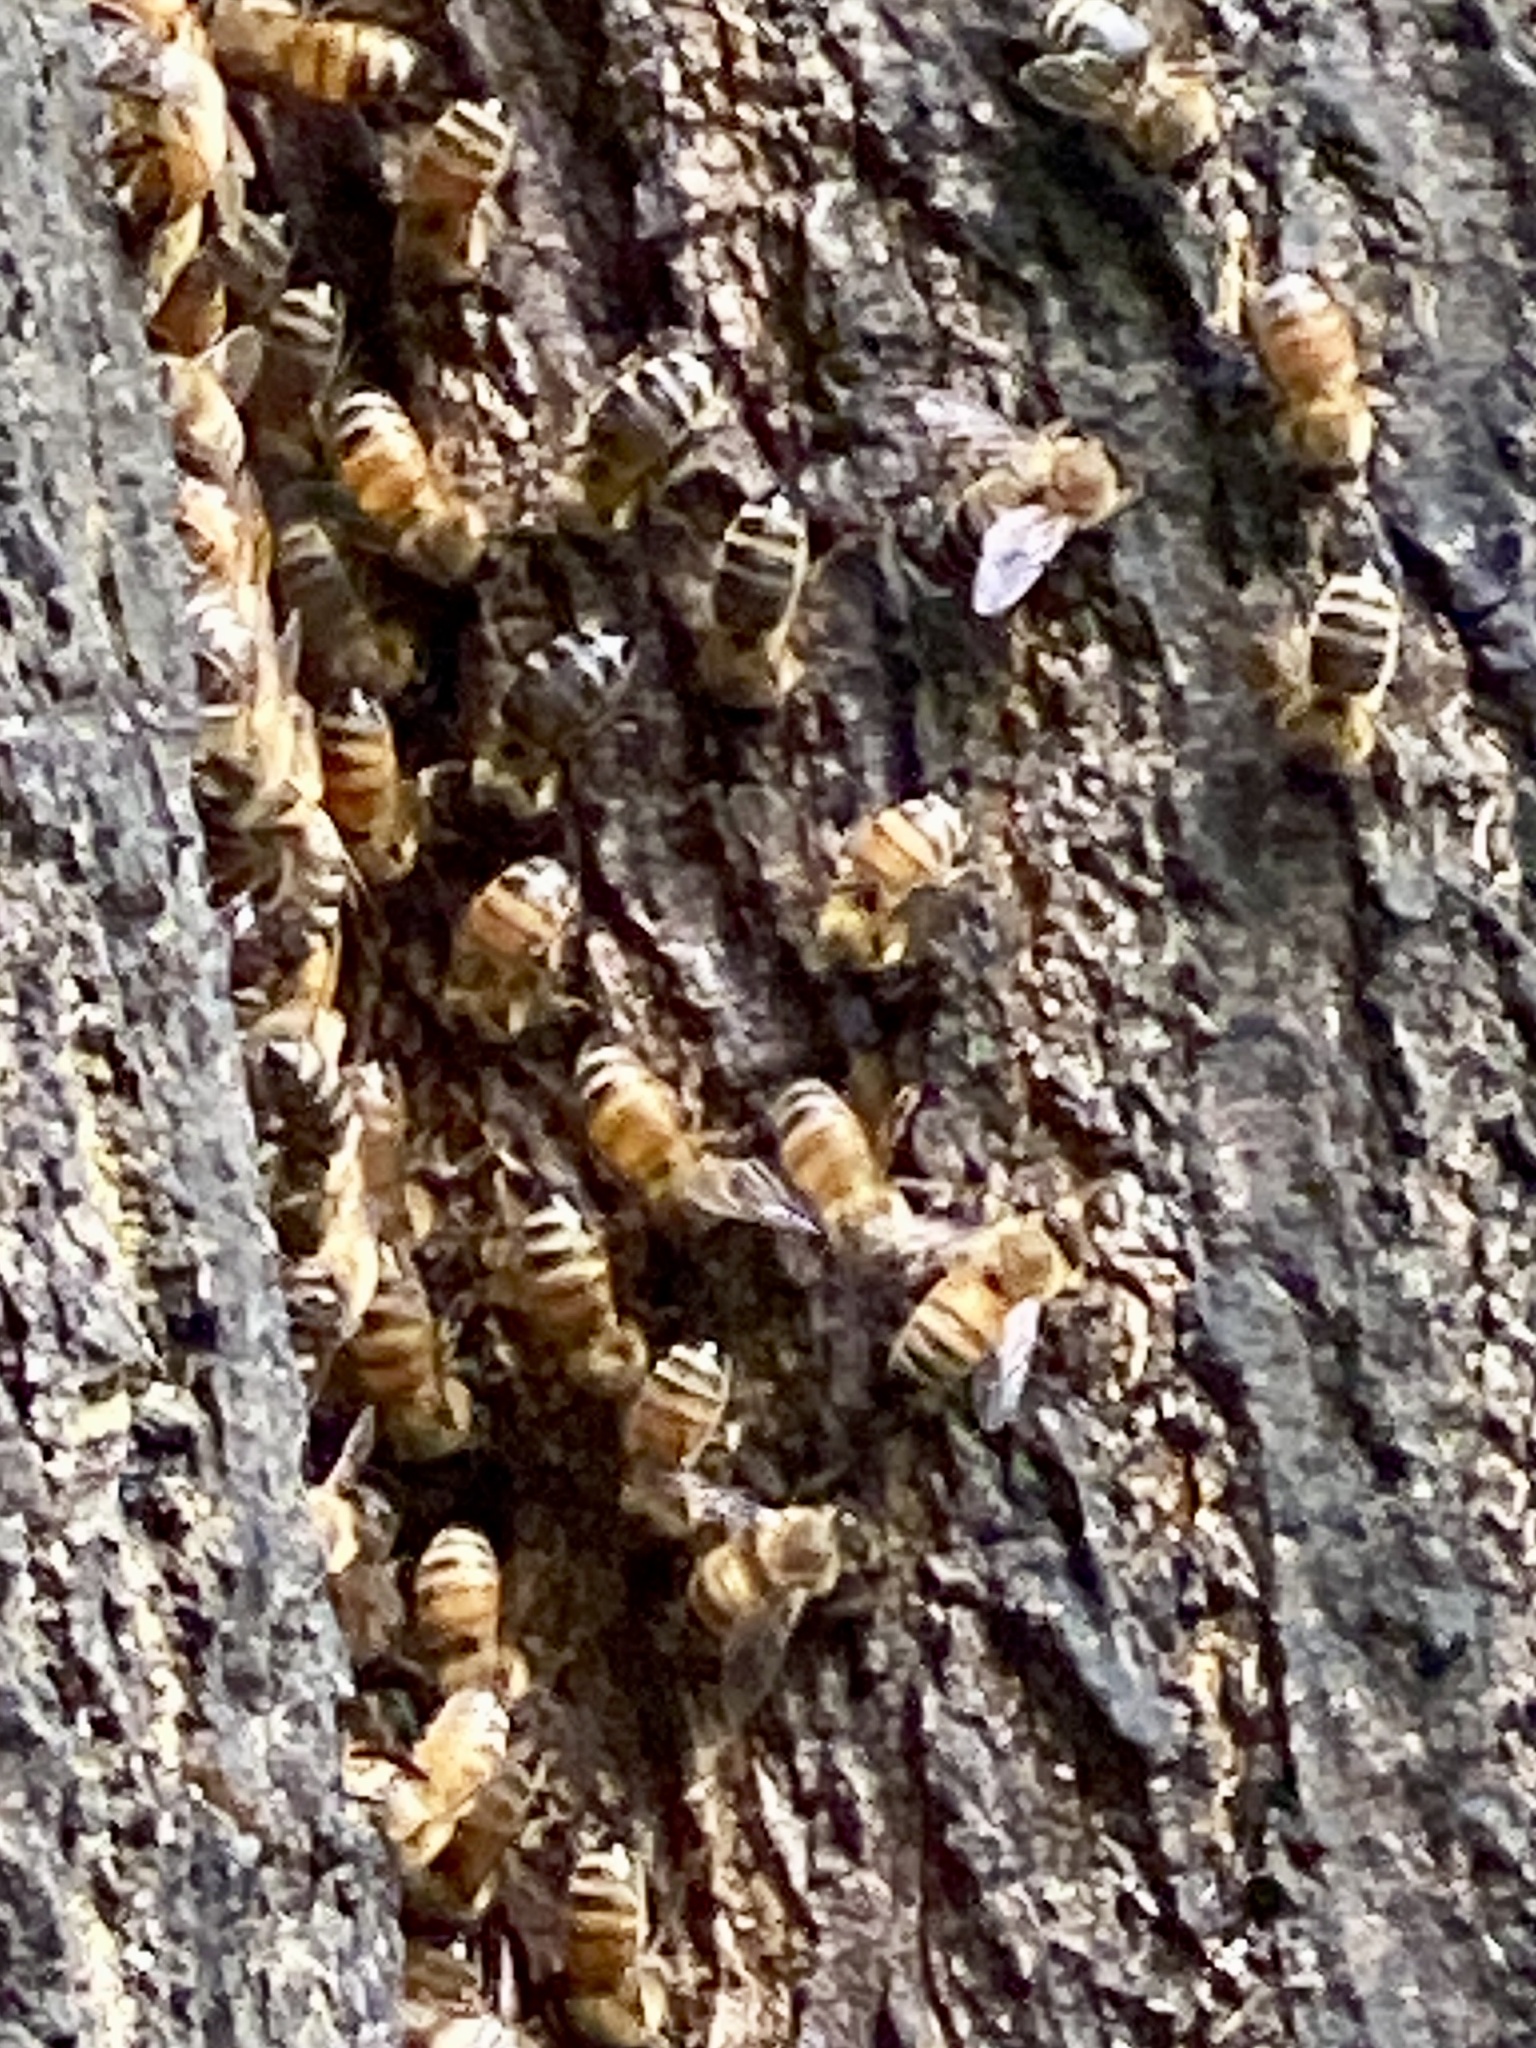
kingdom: Animalia
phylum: Arthropoda
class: Insecta
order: Hymenoptera
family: Apidae
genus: Apis
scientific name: Apis mellifera
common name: Honey bee
